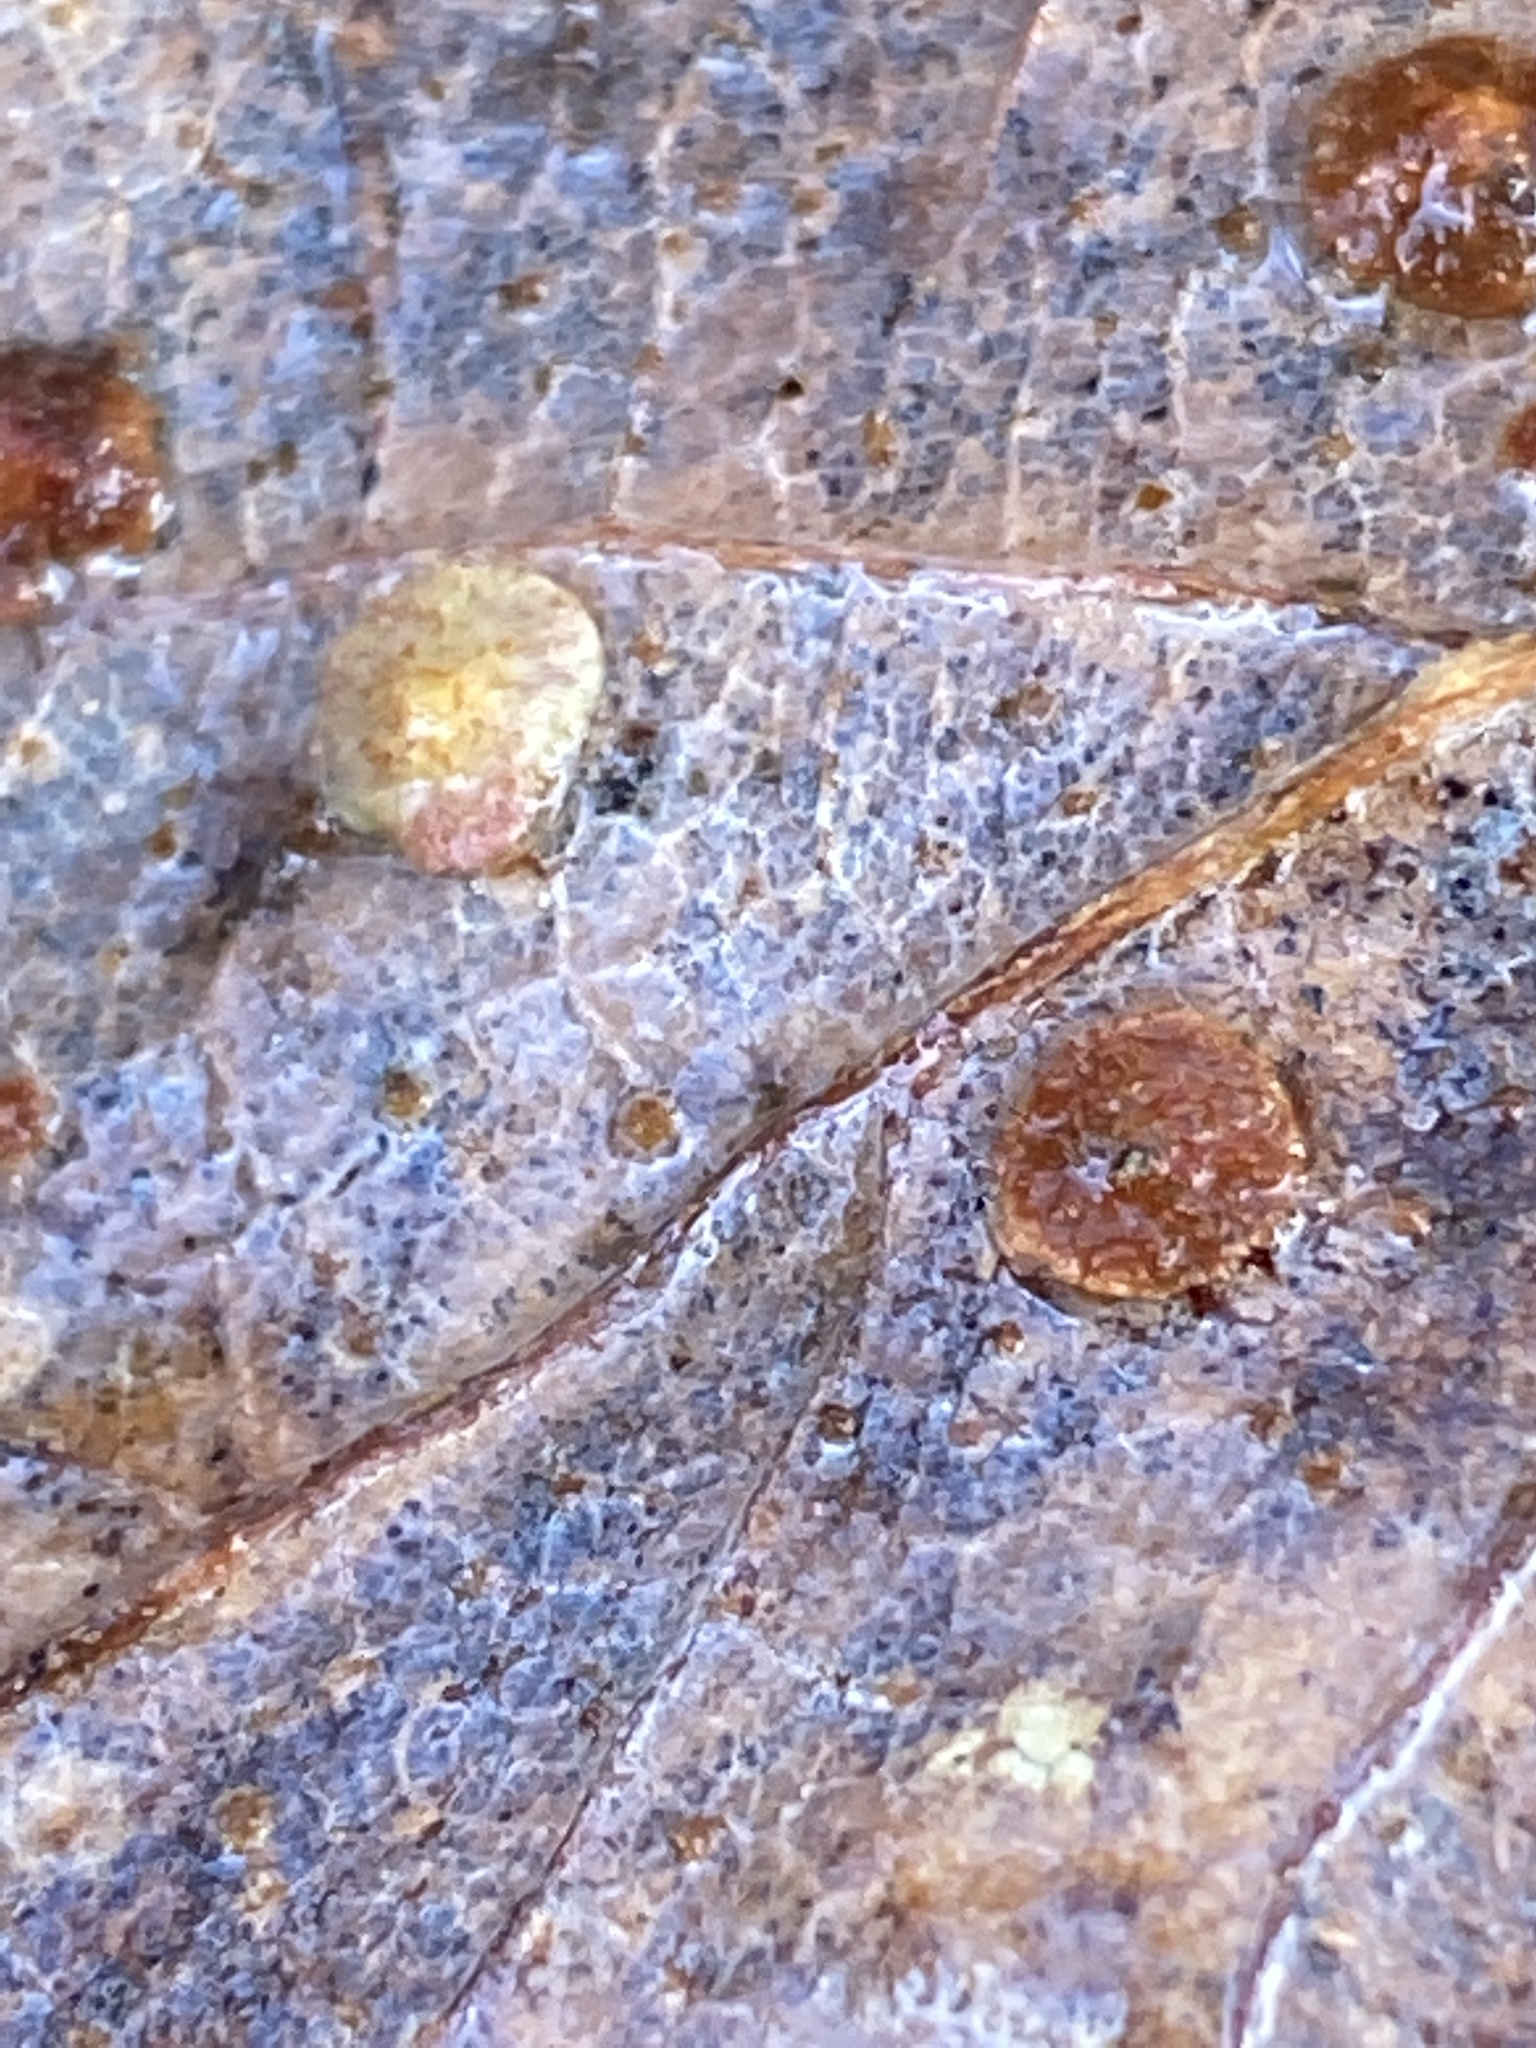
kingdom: Animalia
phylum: Arthropoda
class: Insecta
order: Hymenoptera
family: Cynipidae
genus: Neuroterus
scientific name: Neuroterus quercusbaccarum
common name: Common spangle gall
